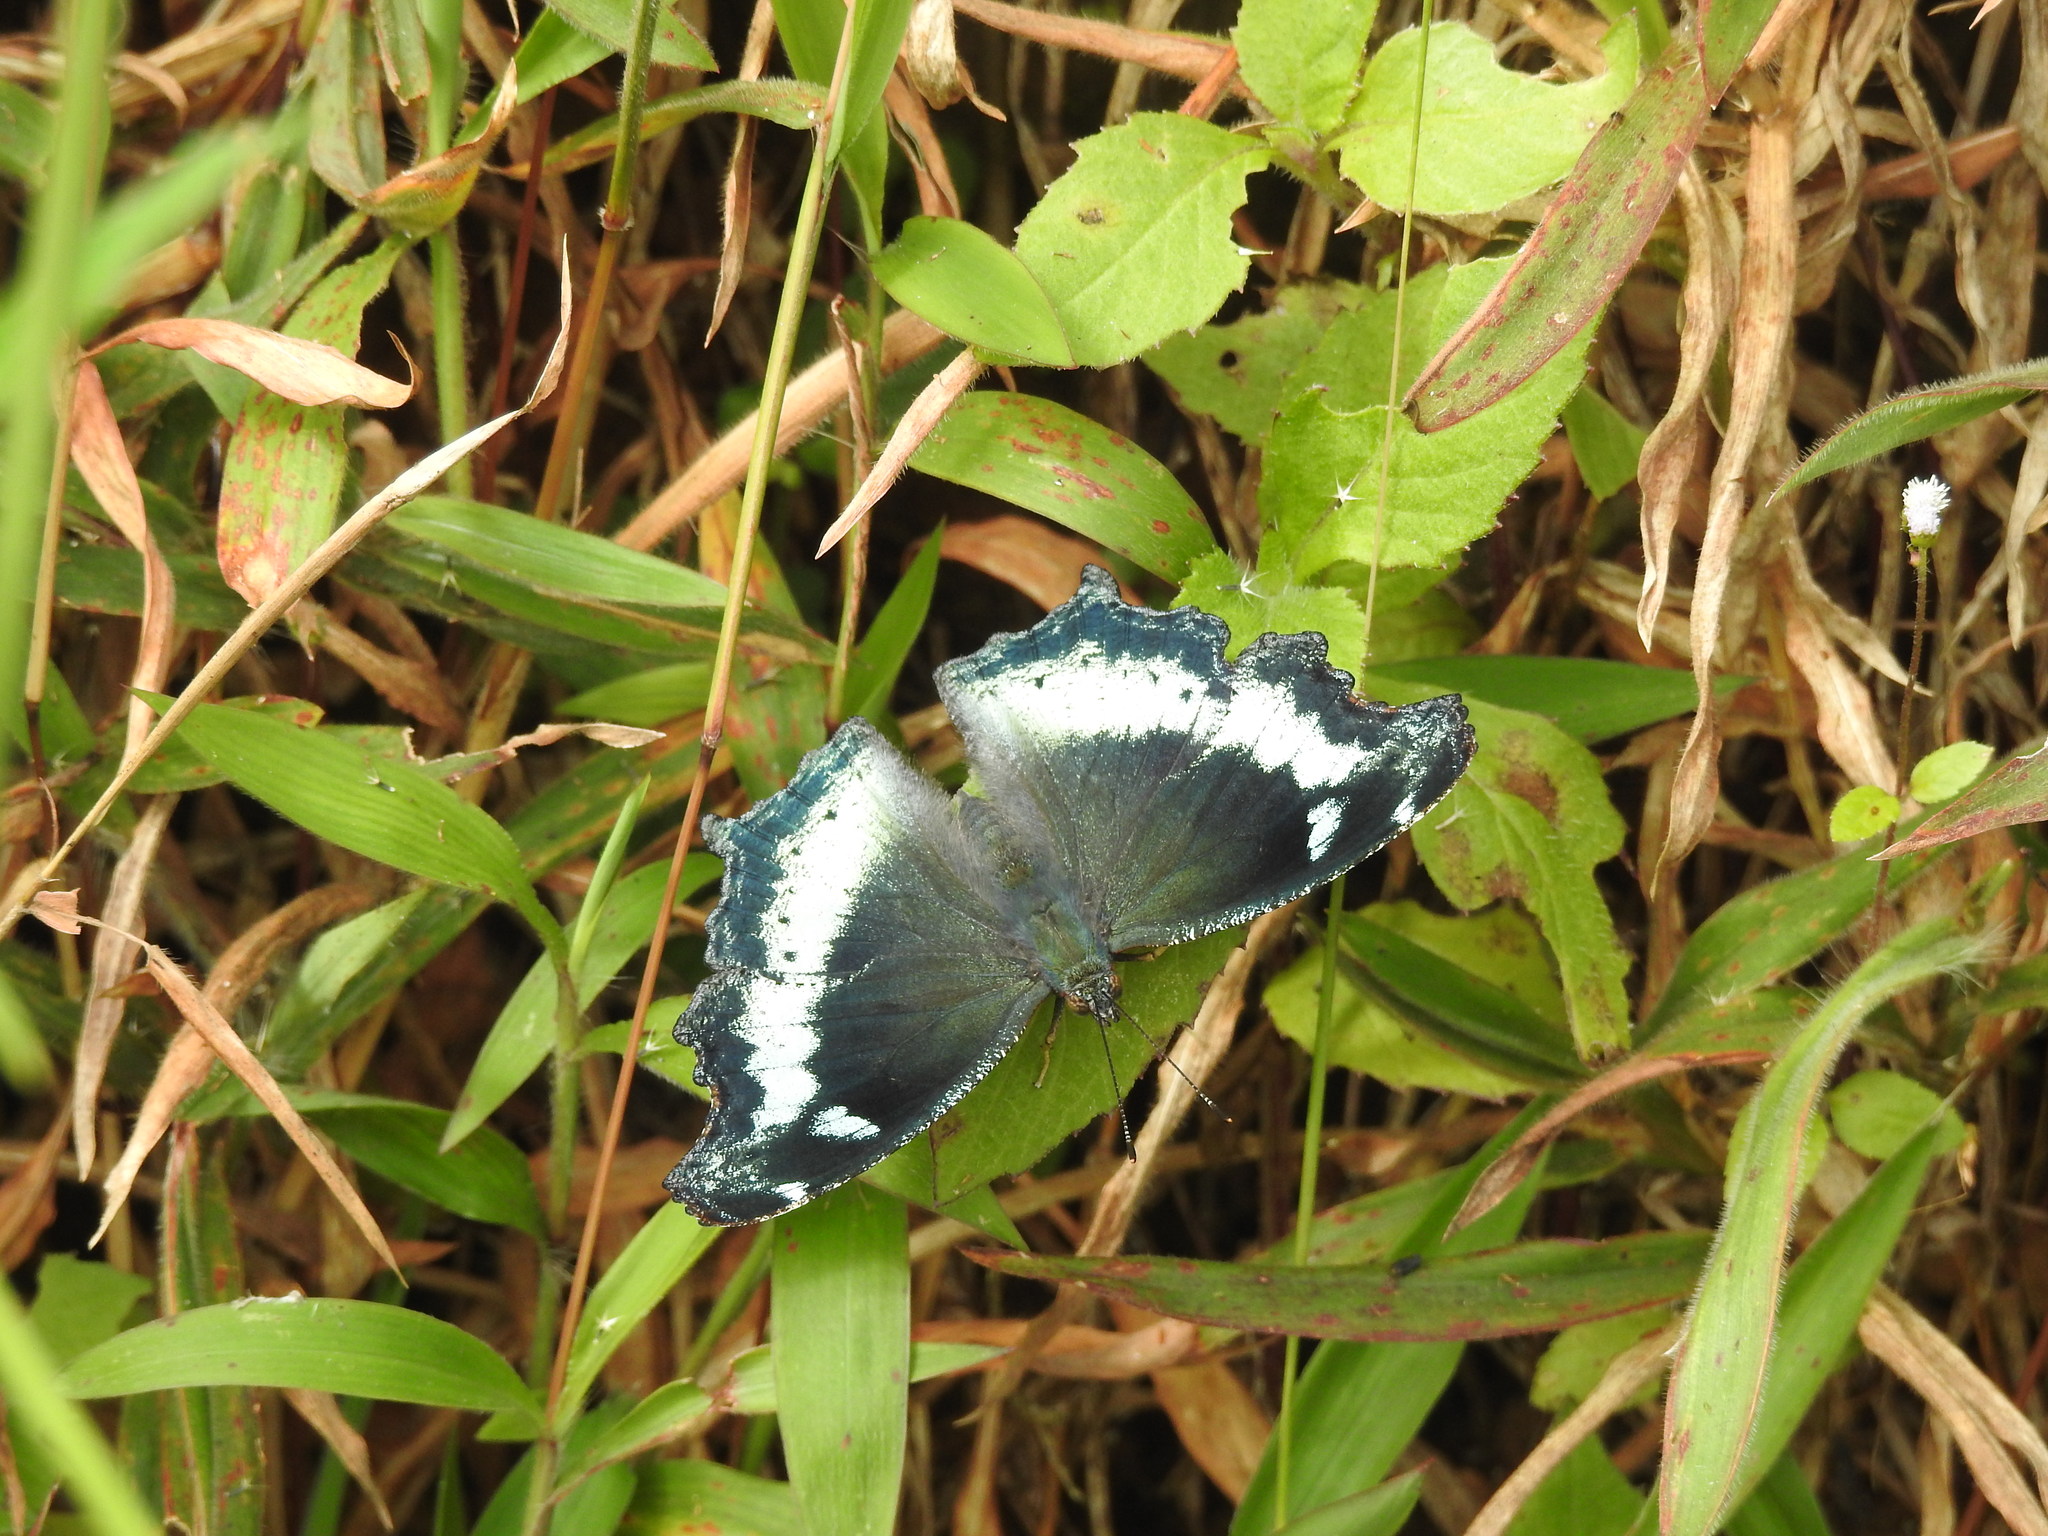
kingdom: Animalia
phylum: Arthropoda
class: Insecta
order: Lepidoptera
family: Nymphalidae
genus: Vanessa
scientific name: Vanessa Kaniska canace
